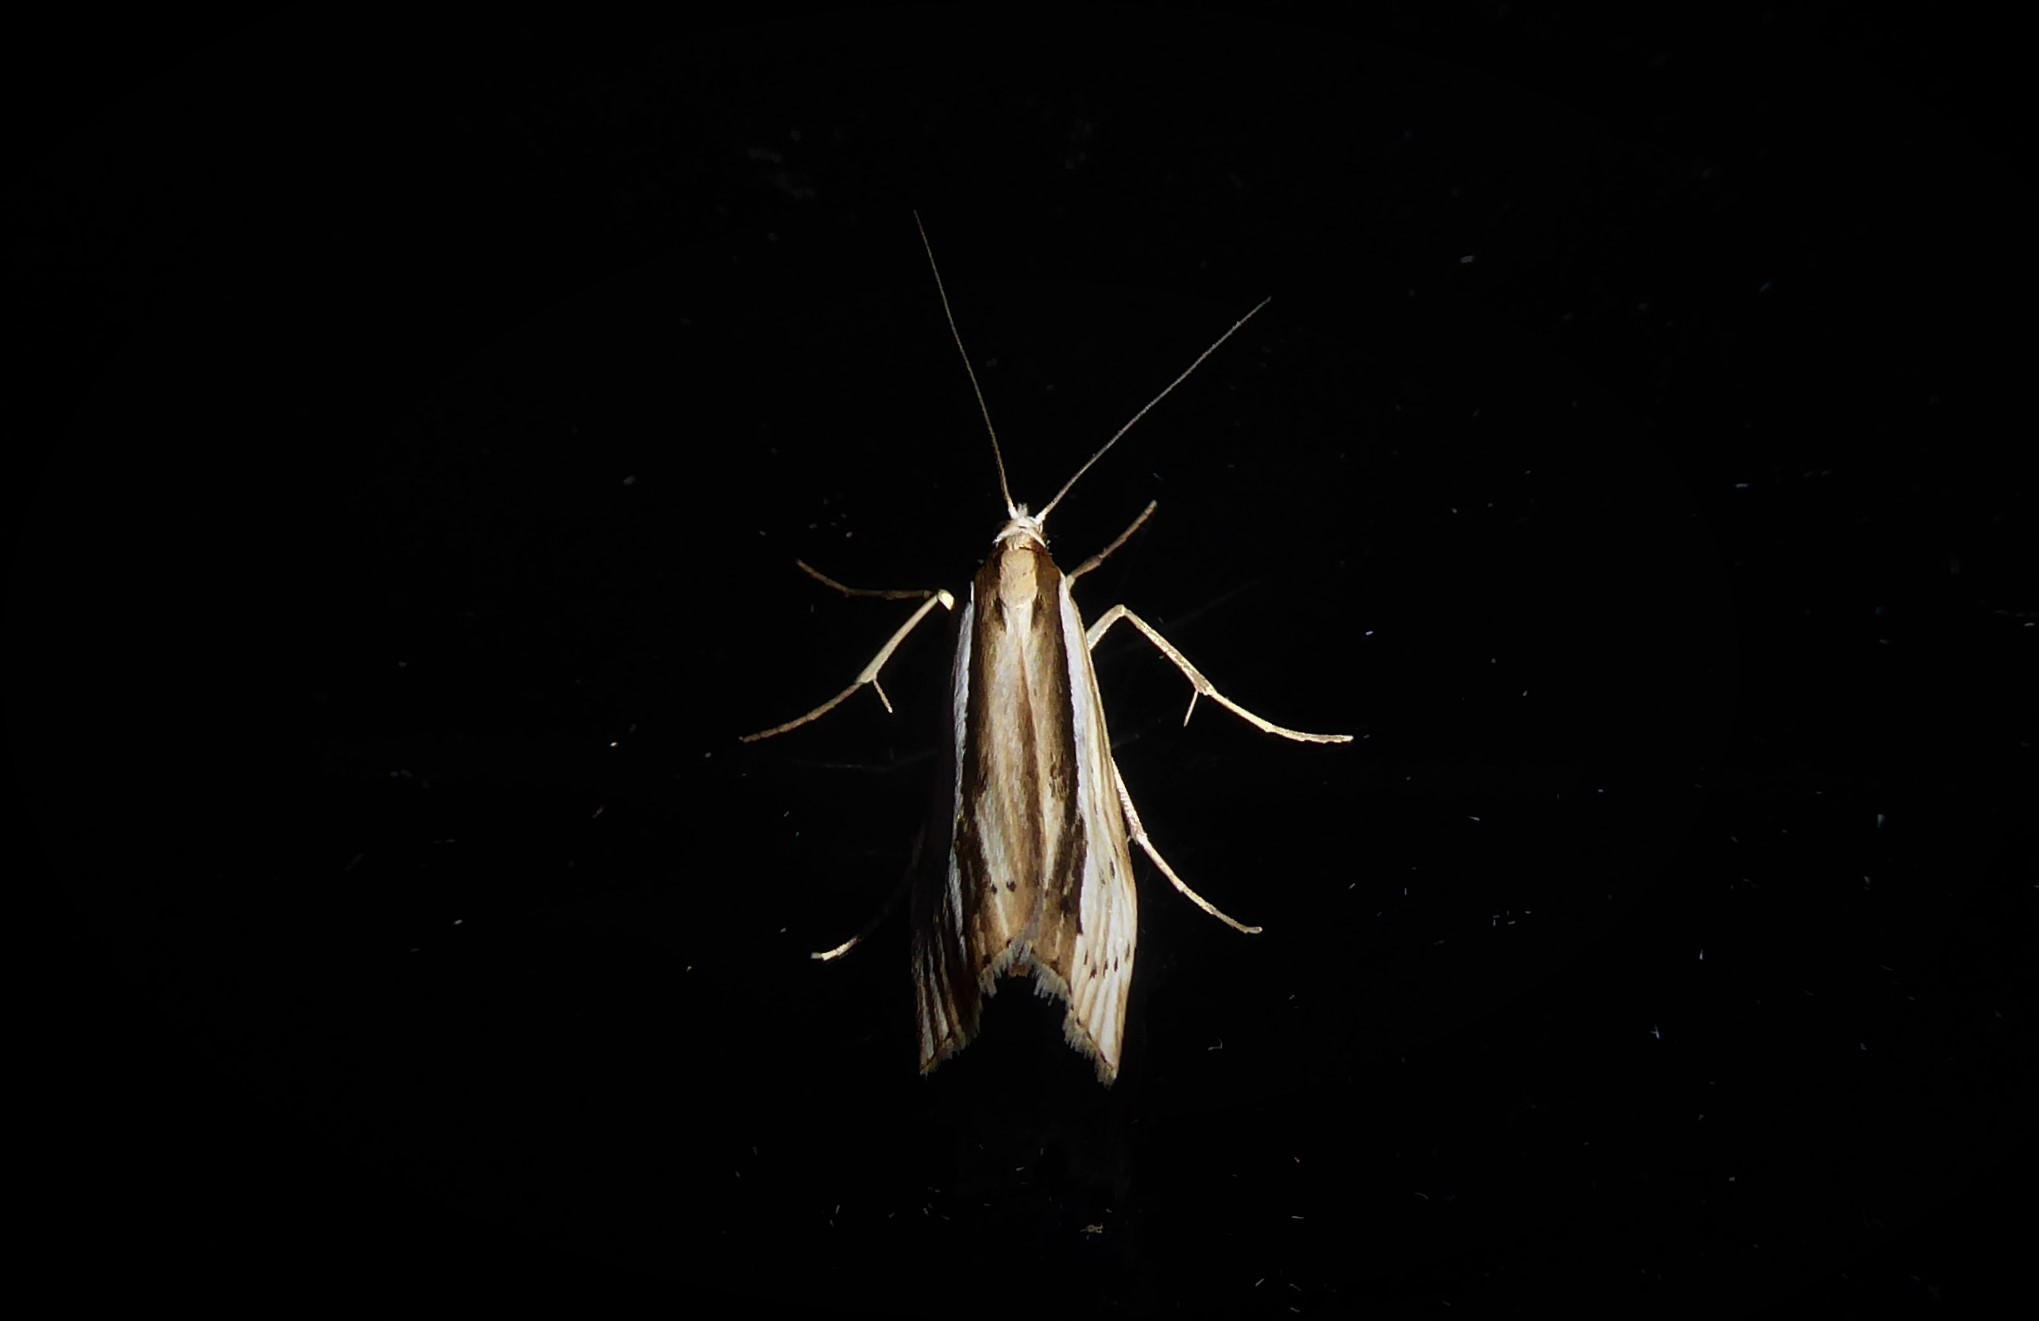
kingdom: Animalia
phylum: Arthropoda
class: Insecta
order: Lepidoptera
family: Crambidae
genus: Orocrambus
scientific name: Orocrambus ramosellus
